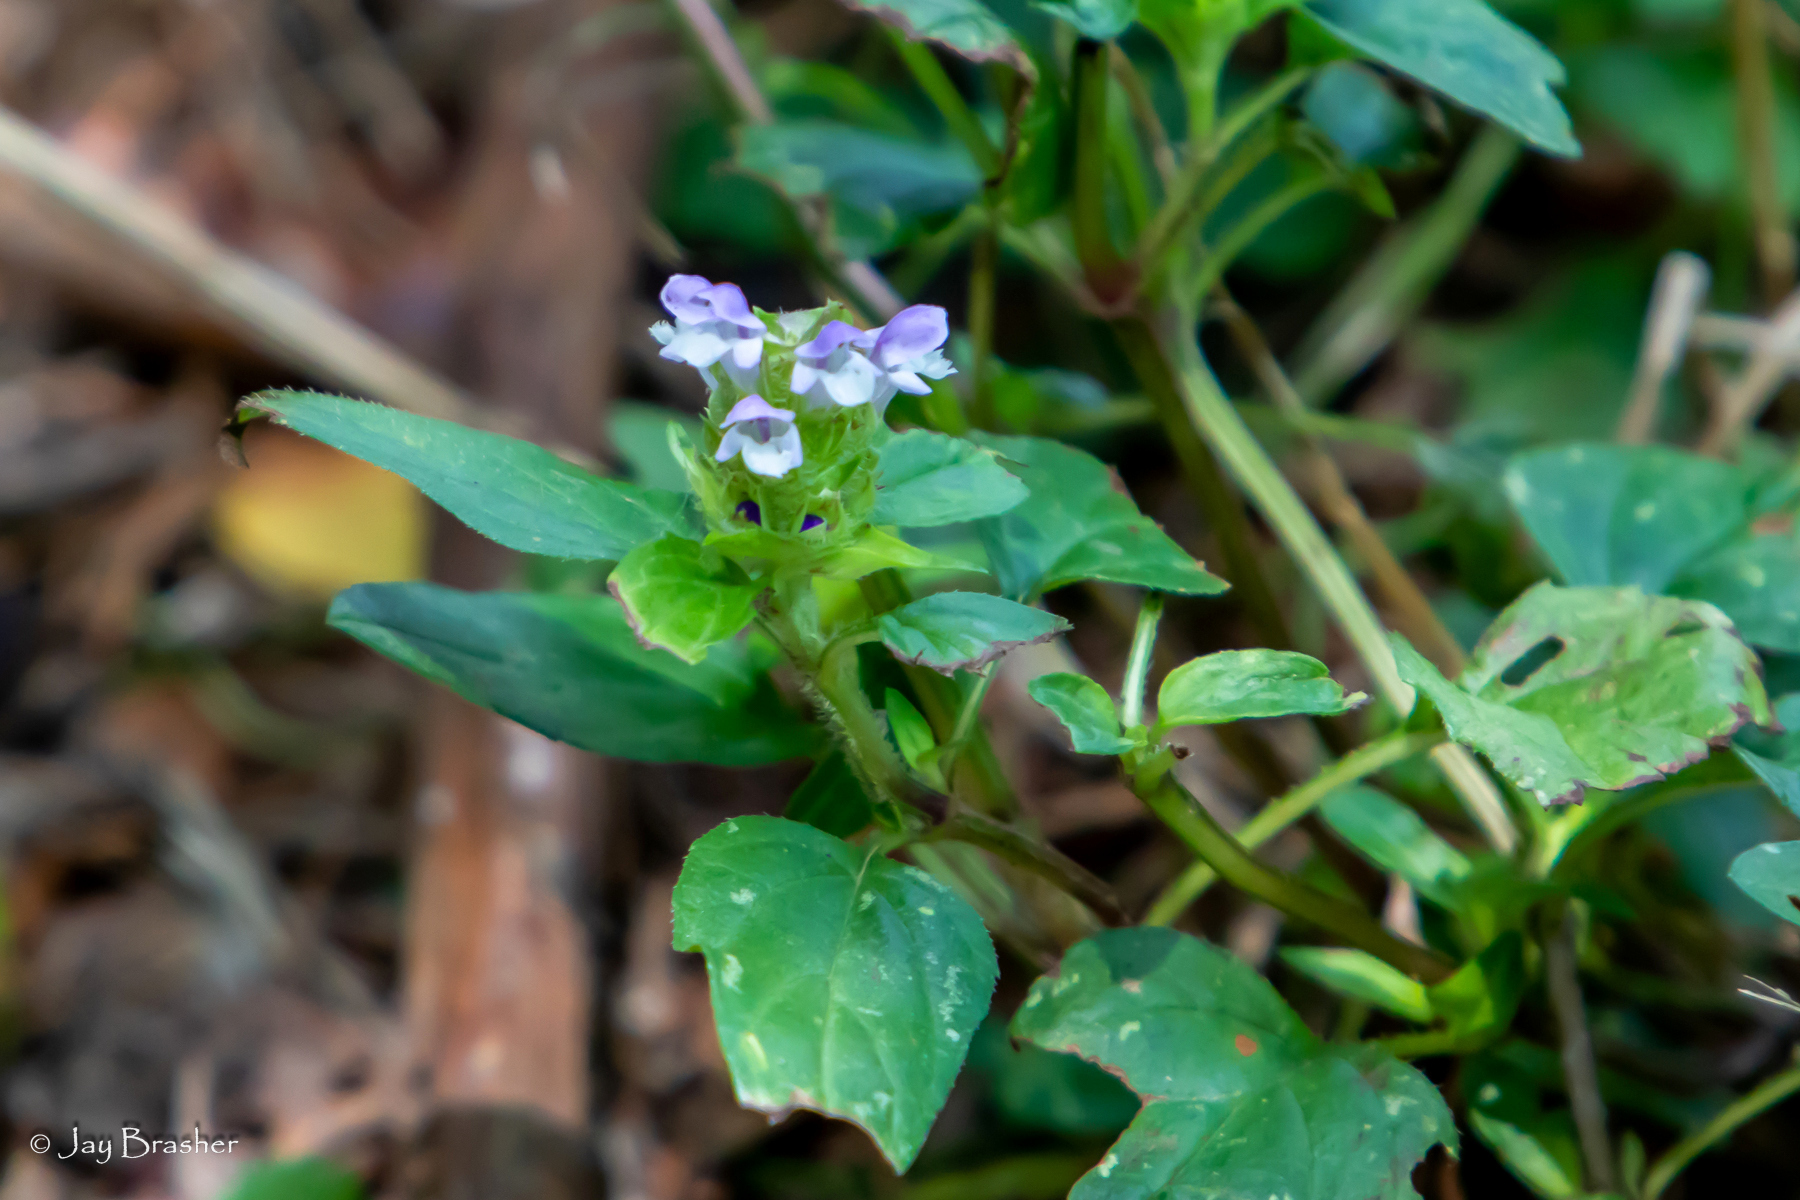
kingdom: Plantae
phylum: Tracheophyta
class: Magnoliopsida
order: Lamiales
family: Lamiaceae
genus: Prunella
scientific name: Prunella vulgaris
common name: Heal-all
